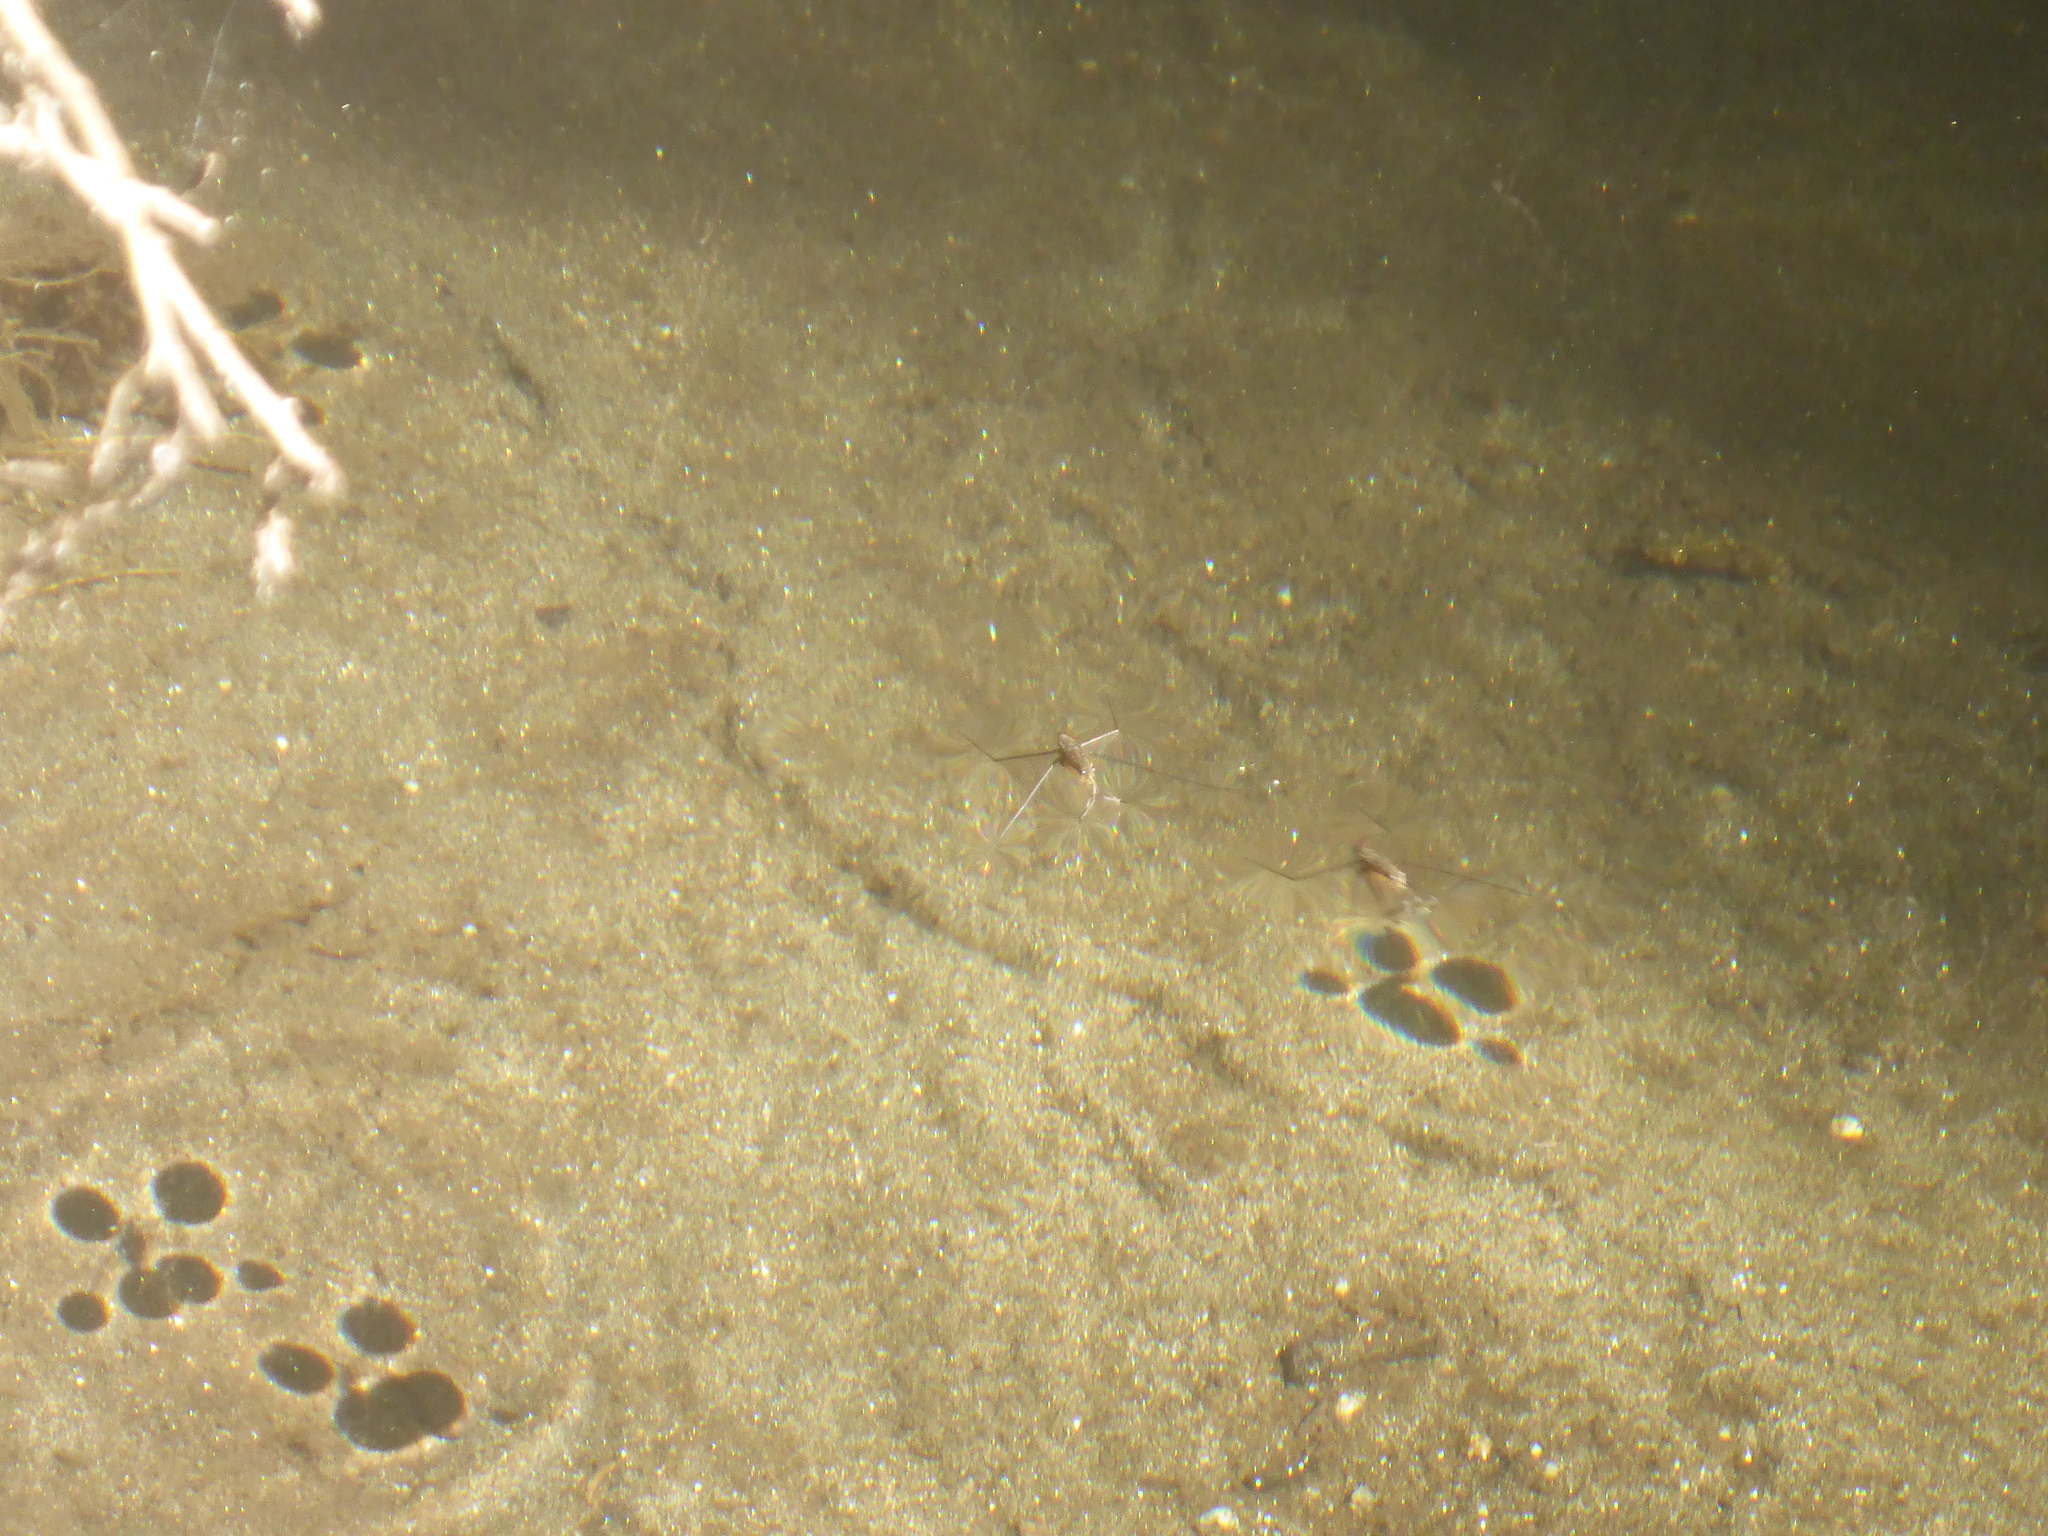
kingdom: Animalia
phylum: Arthropoda
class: Insecta
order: Hemiptera
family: Gerridae
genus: Aquarius
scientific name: Aquarius remigis
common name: Common water strider
